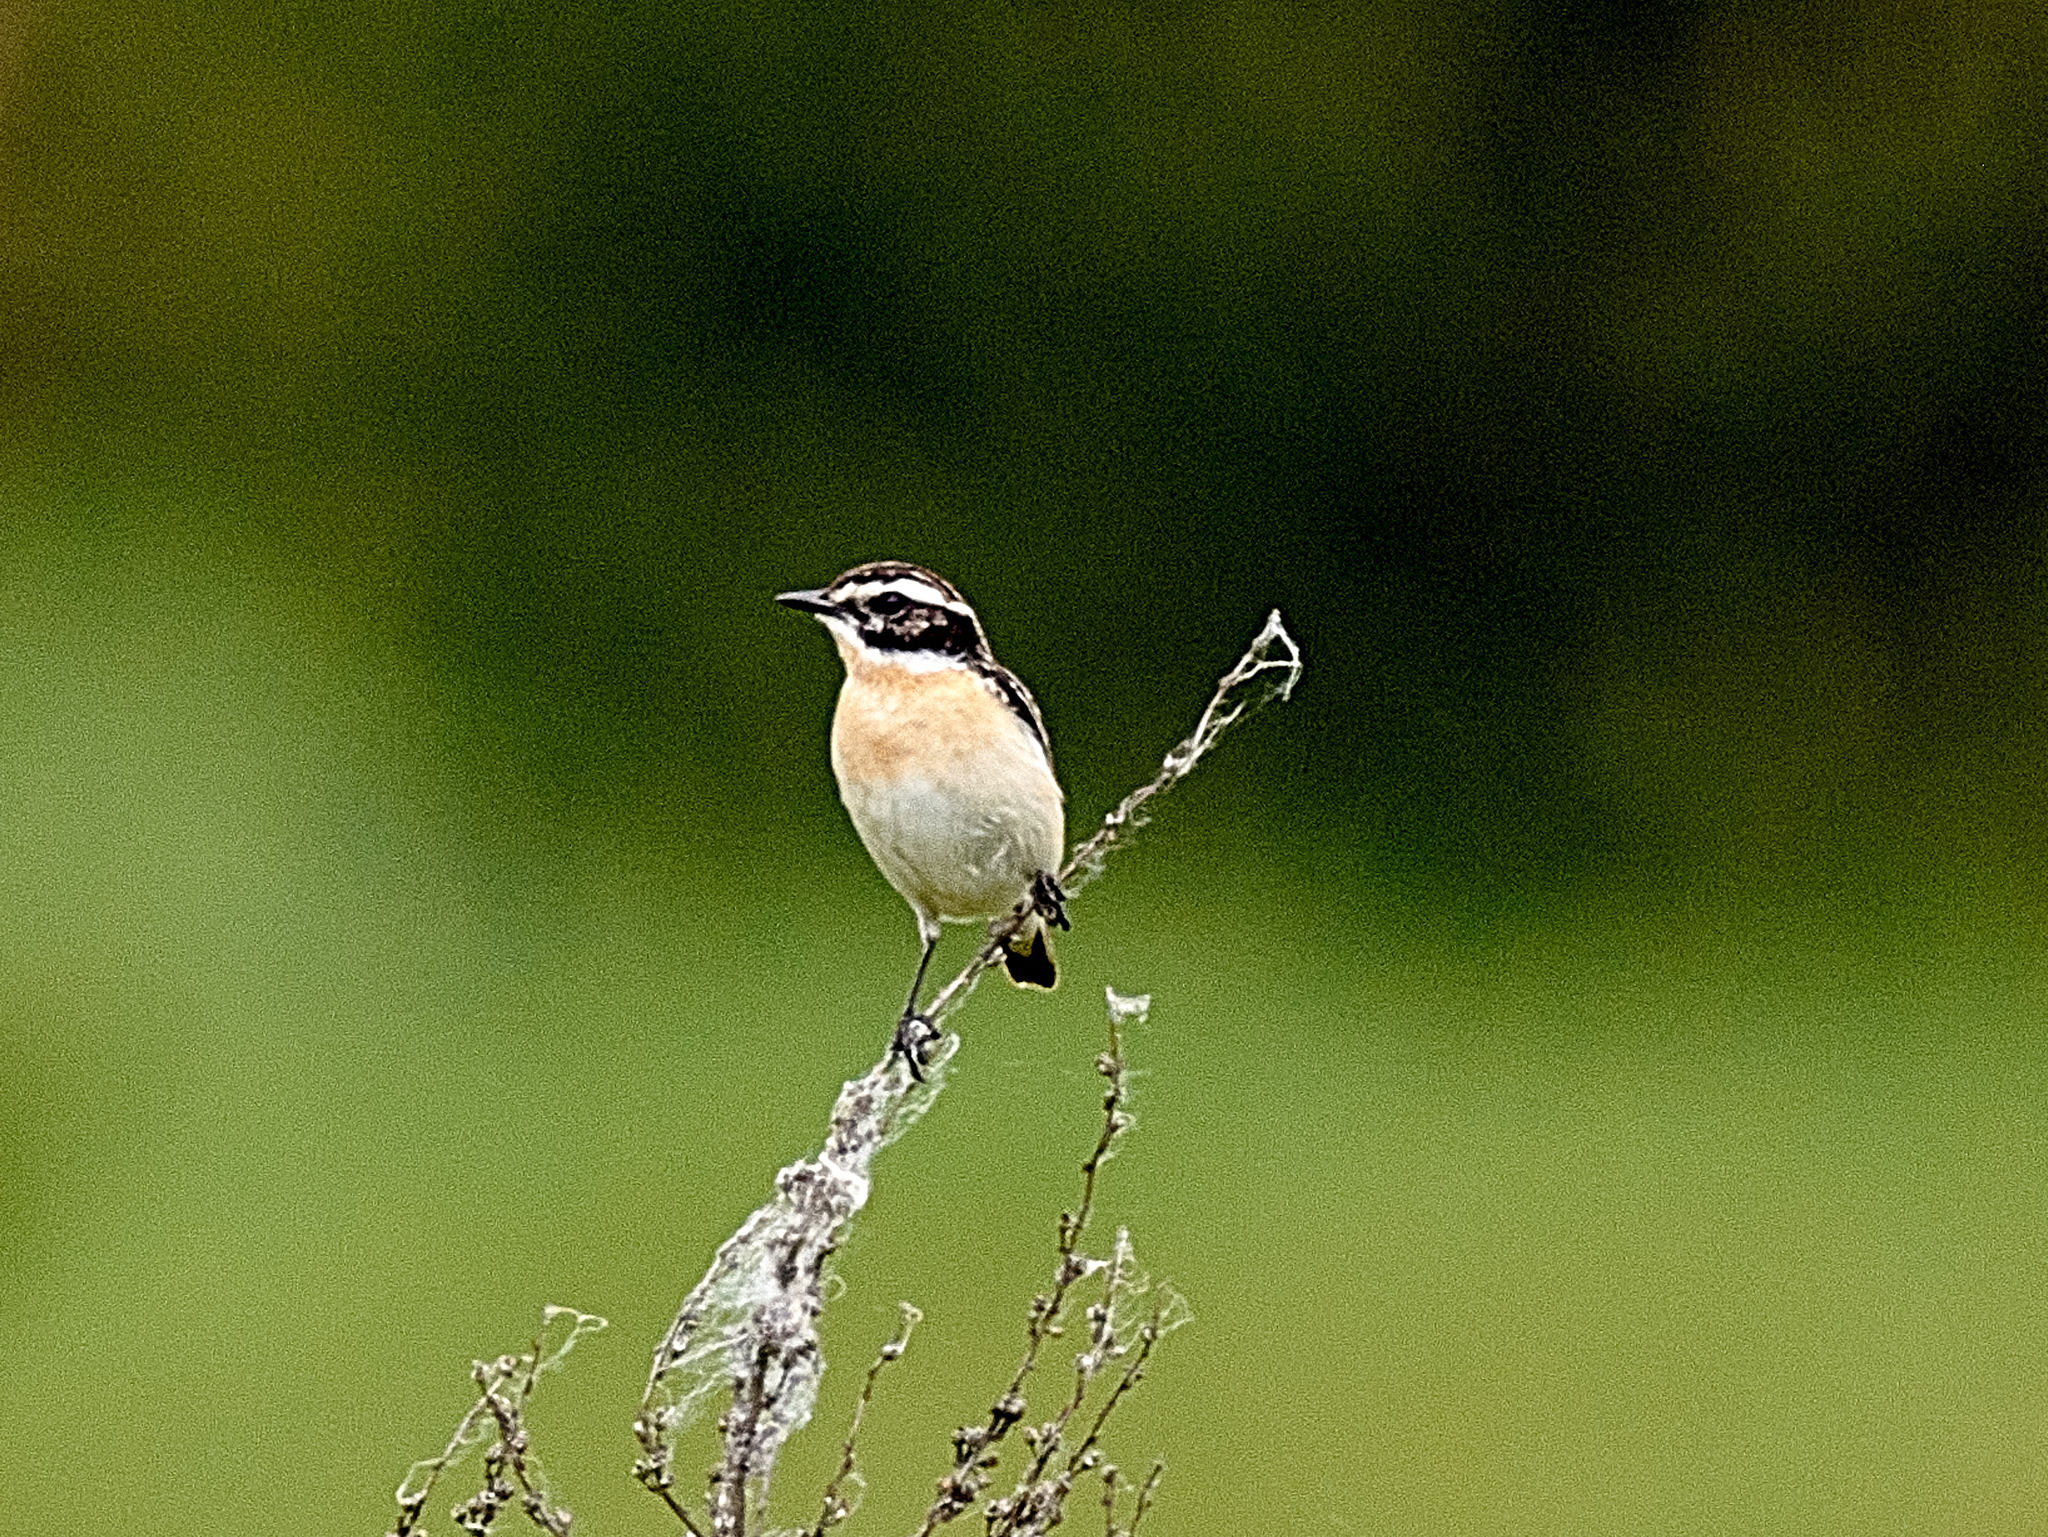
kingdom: Animalia
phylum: Chordata
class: Aves
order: Passeriformes
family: Muscicapidae
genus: Saxicola
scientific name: Saxicola rubetra
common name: Whinchat
